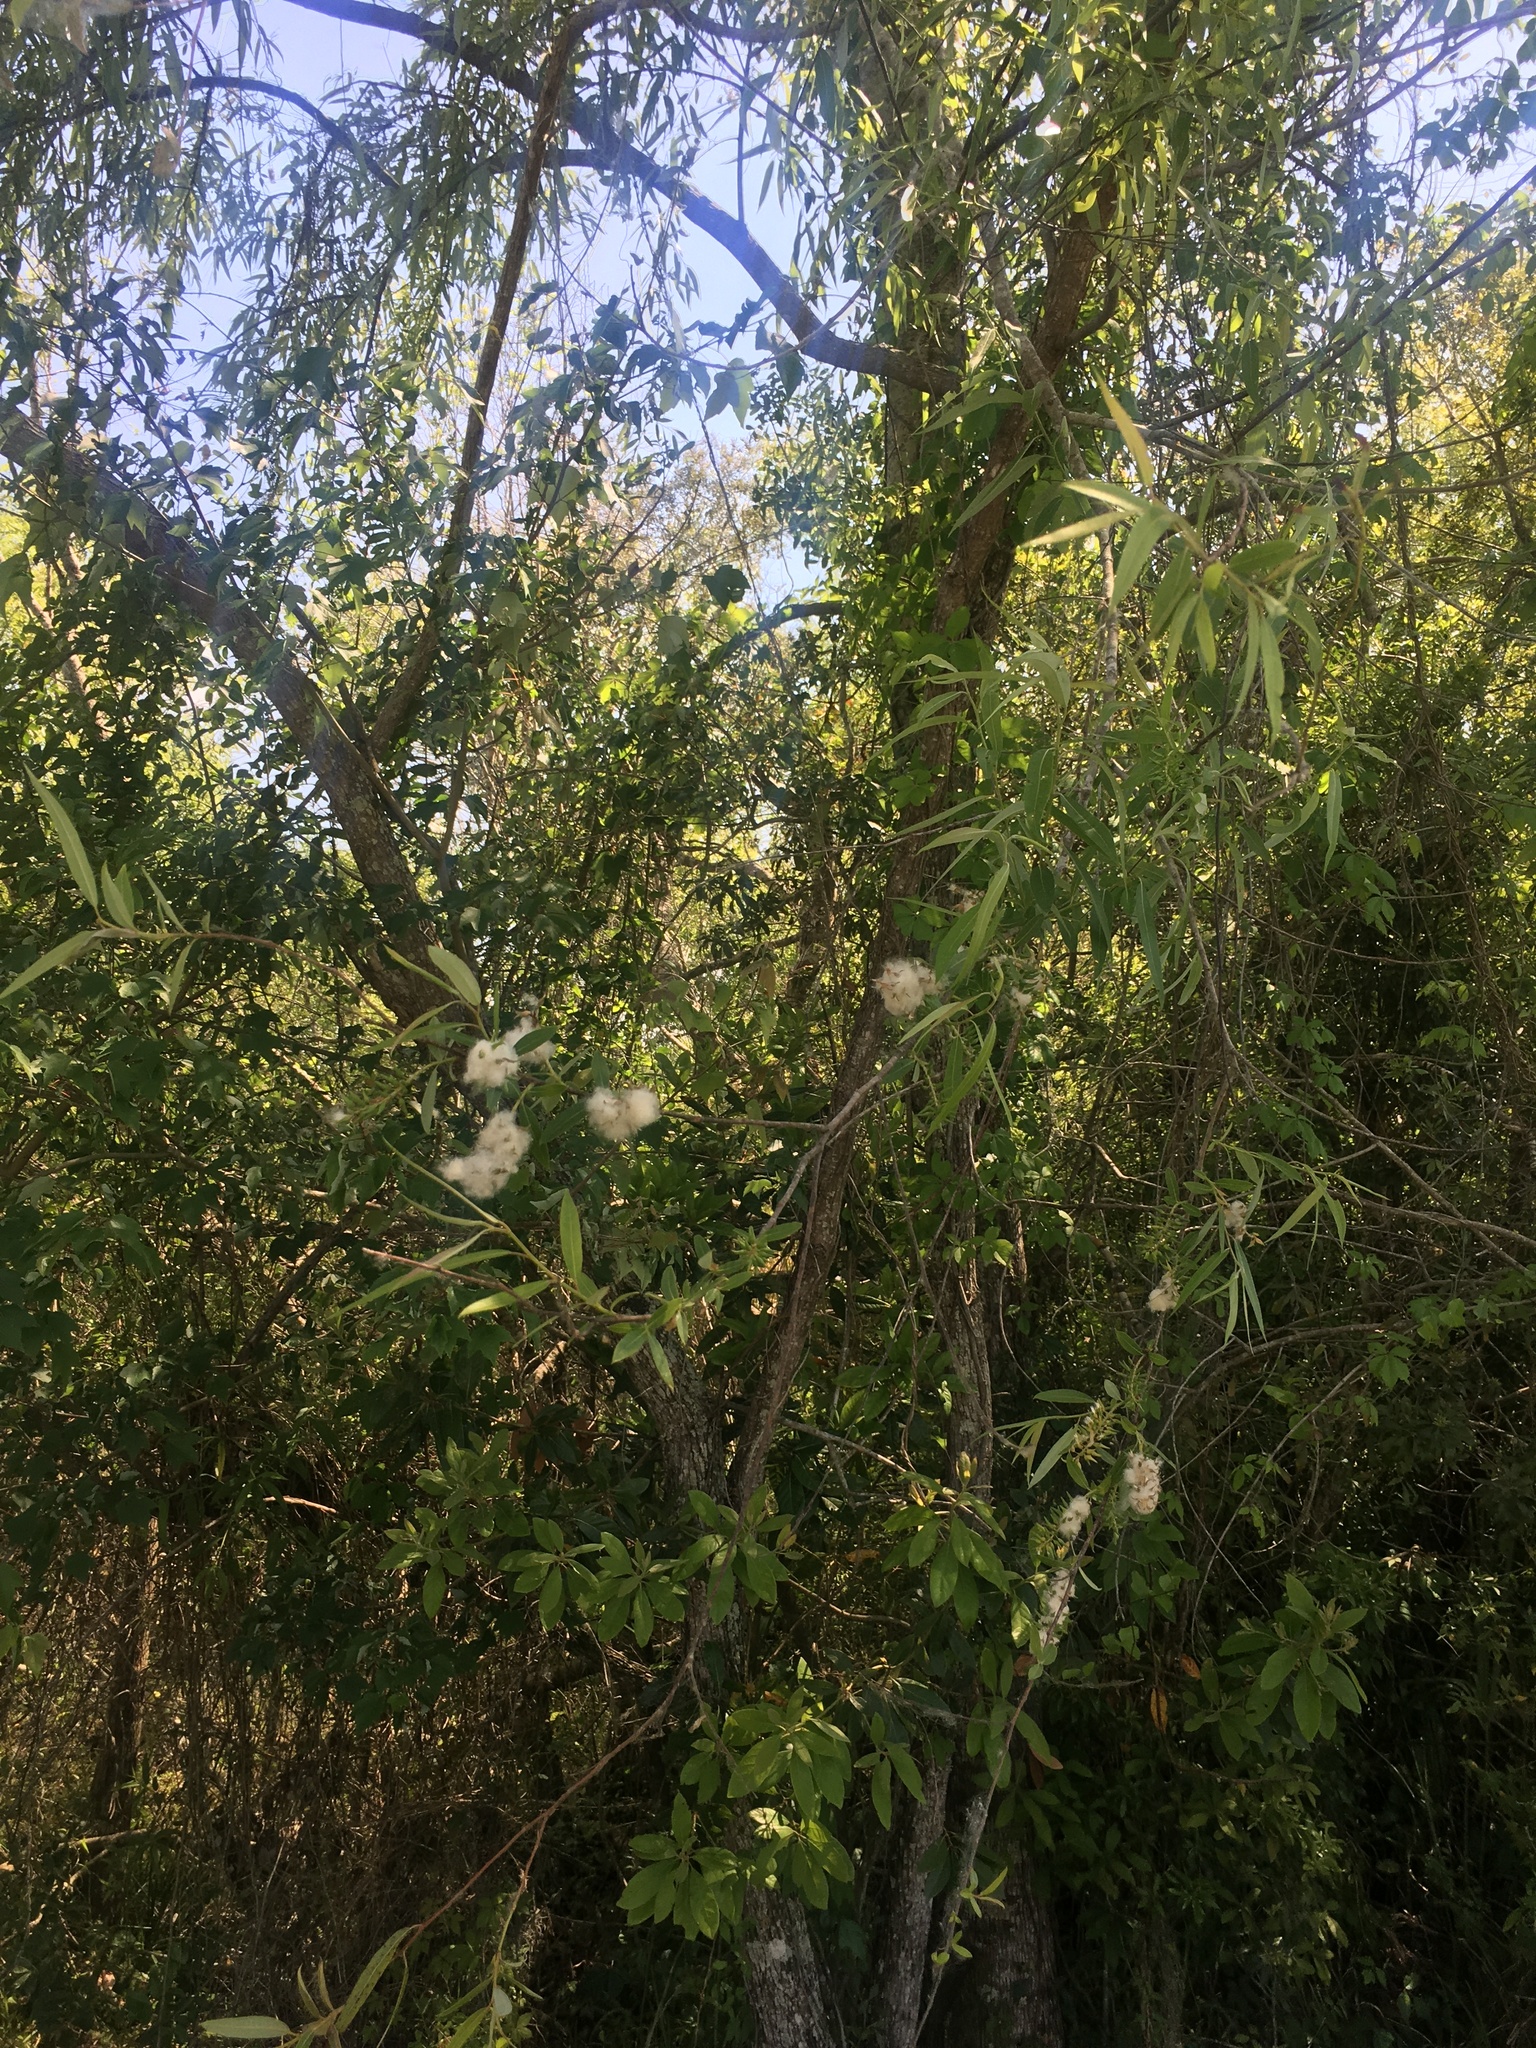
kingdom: Plantae
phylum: Tracheophyta
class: Magnoliopsida
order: Malpighiales
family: Salicaceae
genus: Salix
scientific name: Salix caroliniana
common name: Carolina willow
